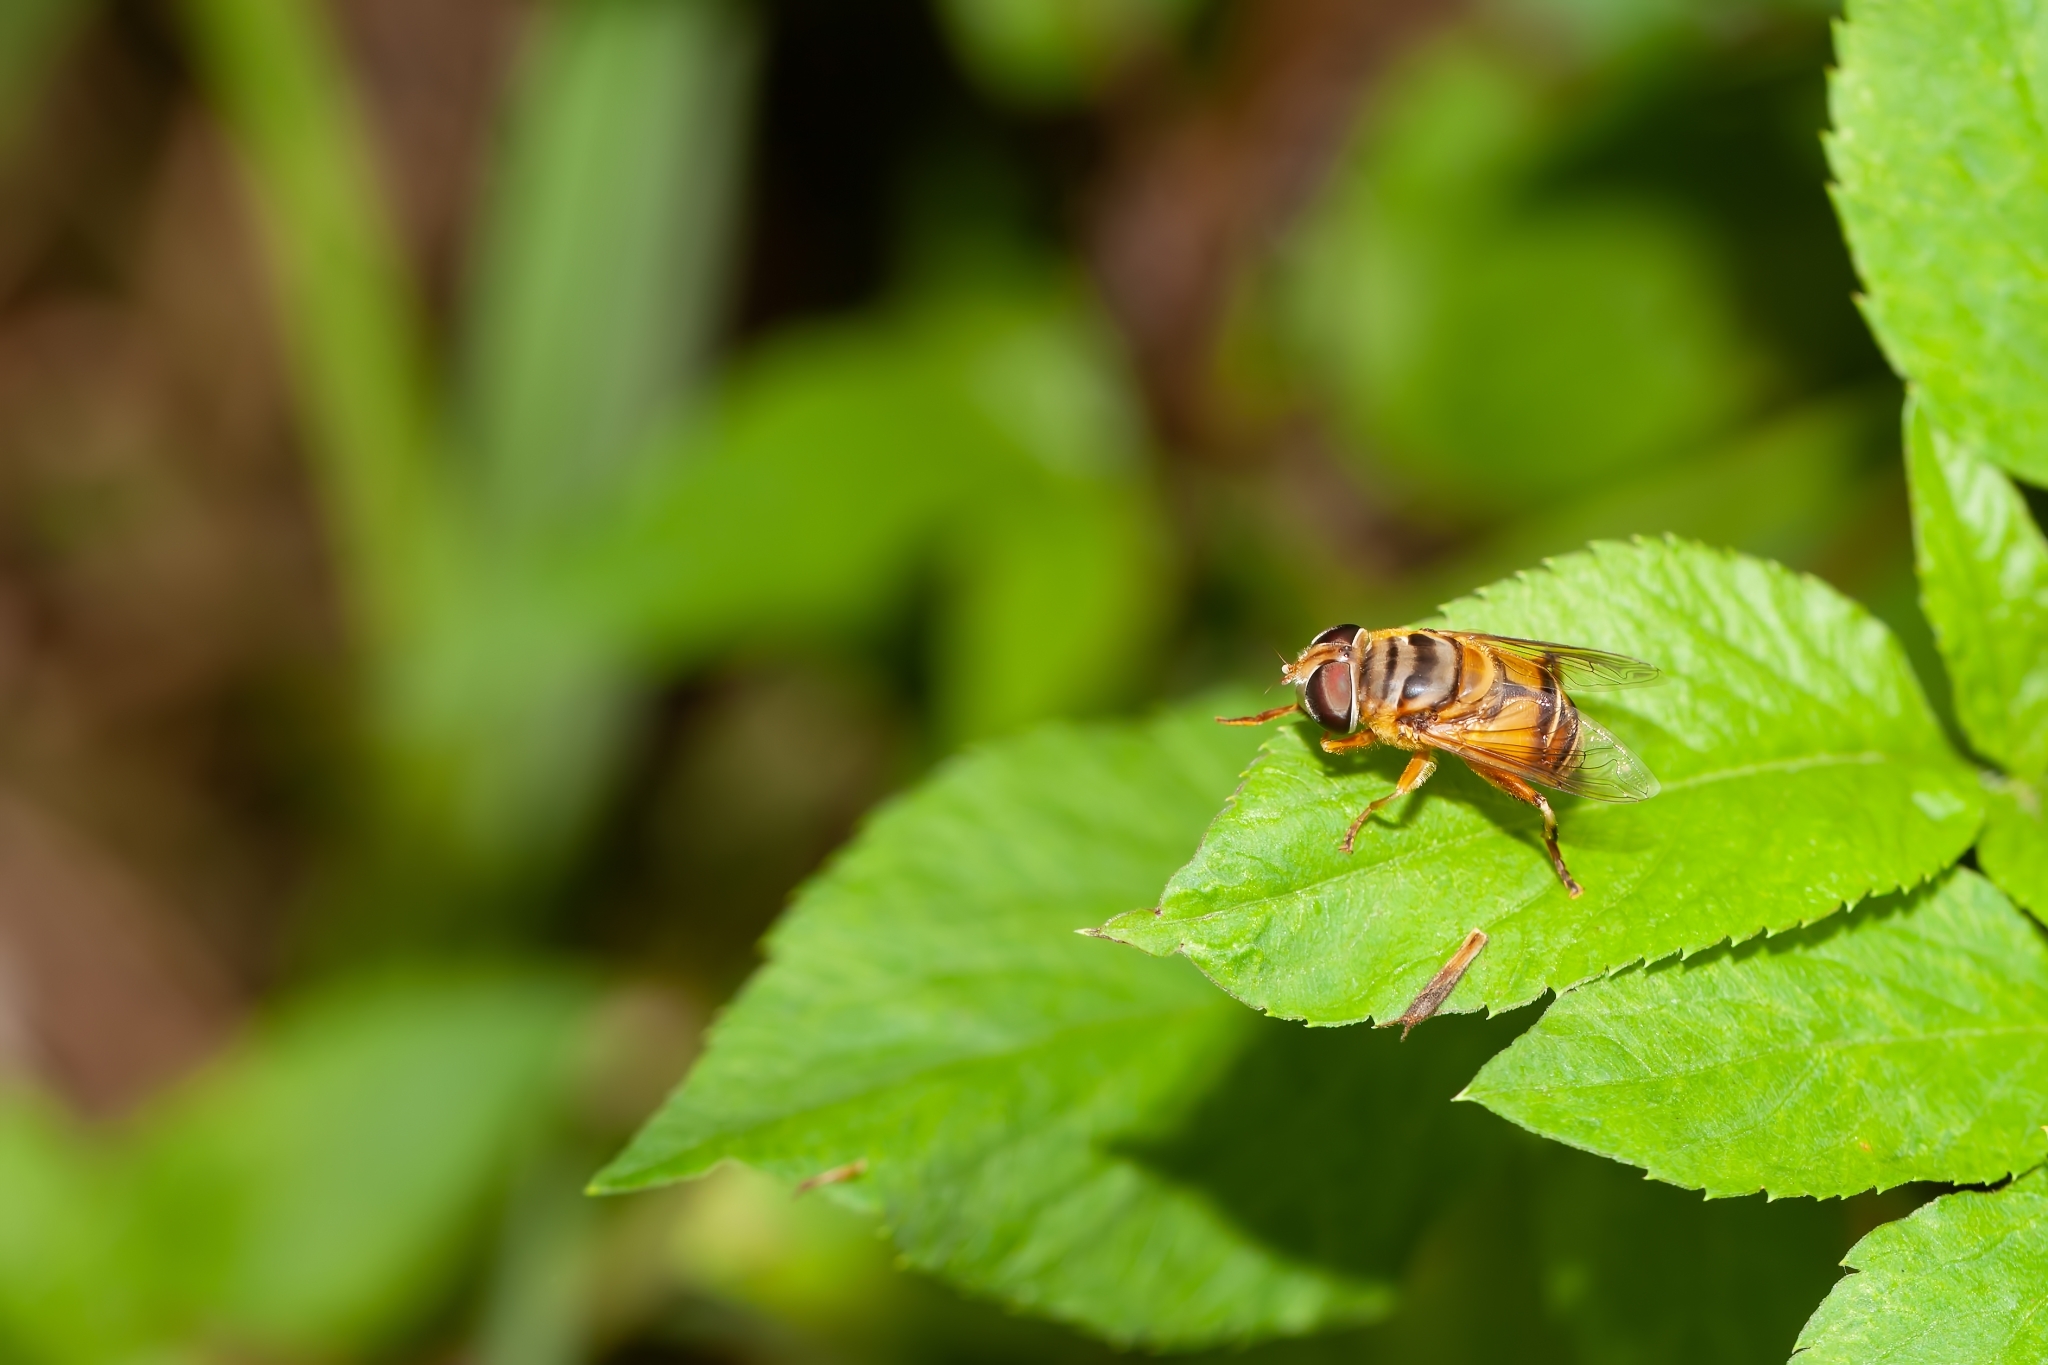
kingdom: Animalia
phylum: Arthropoda
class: Insecta
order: Diptera
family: Syrphidae
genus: Palpada
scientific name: Palpada vinetorum
